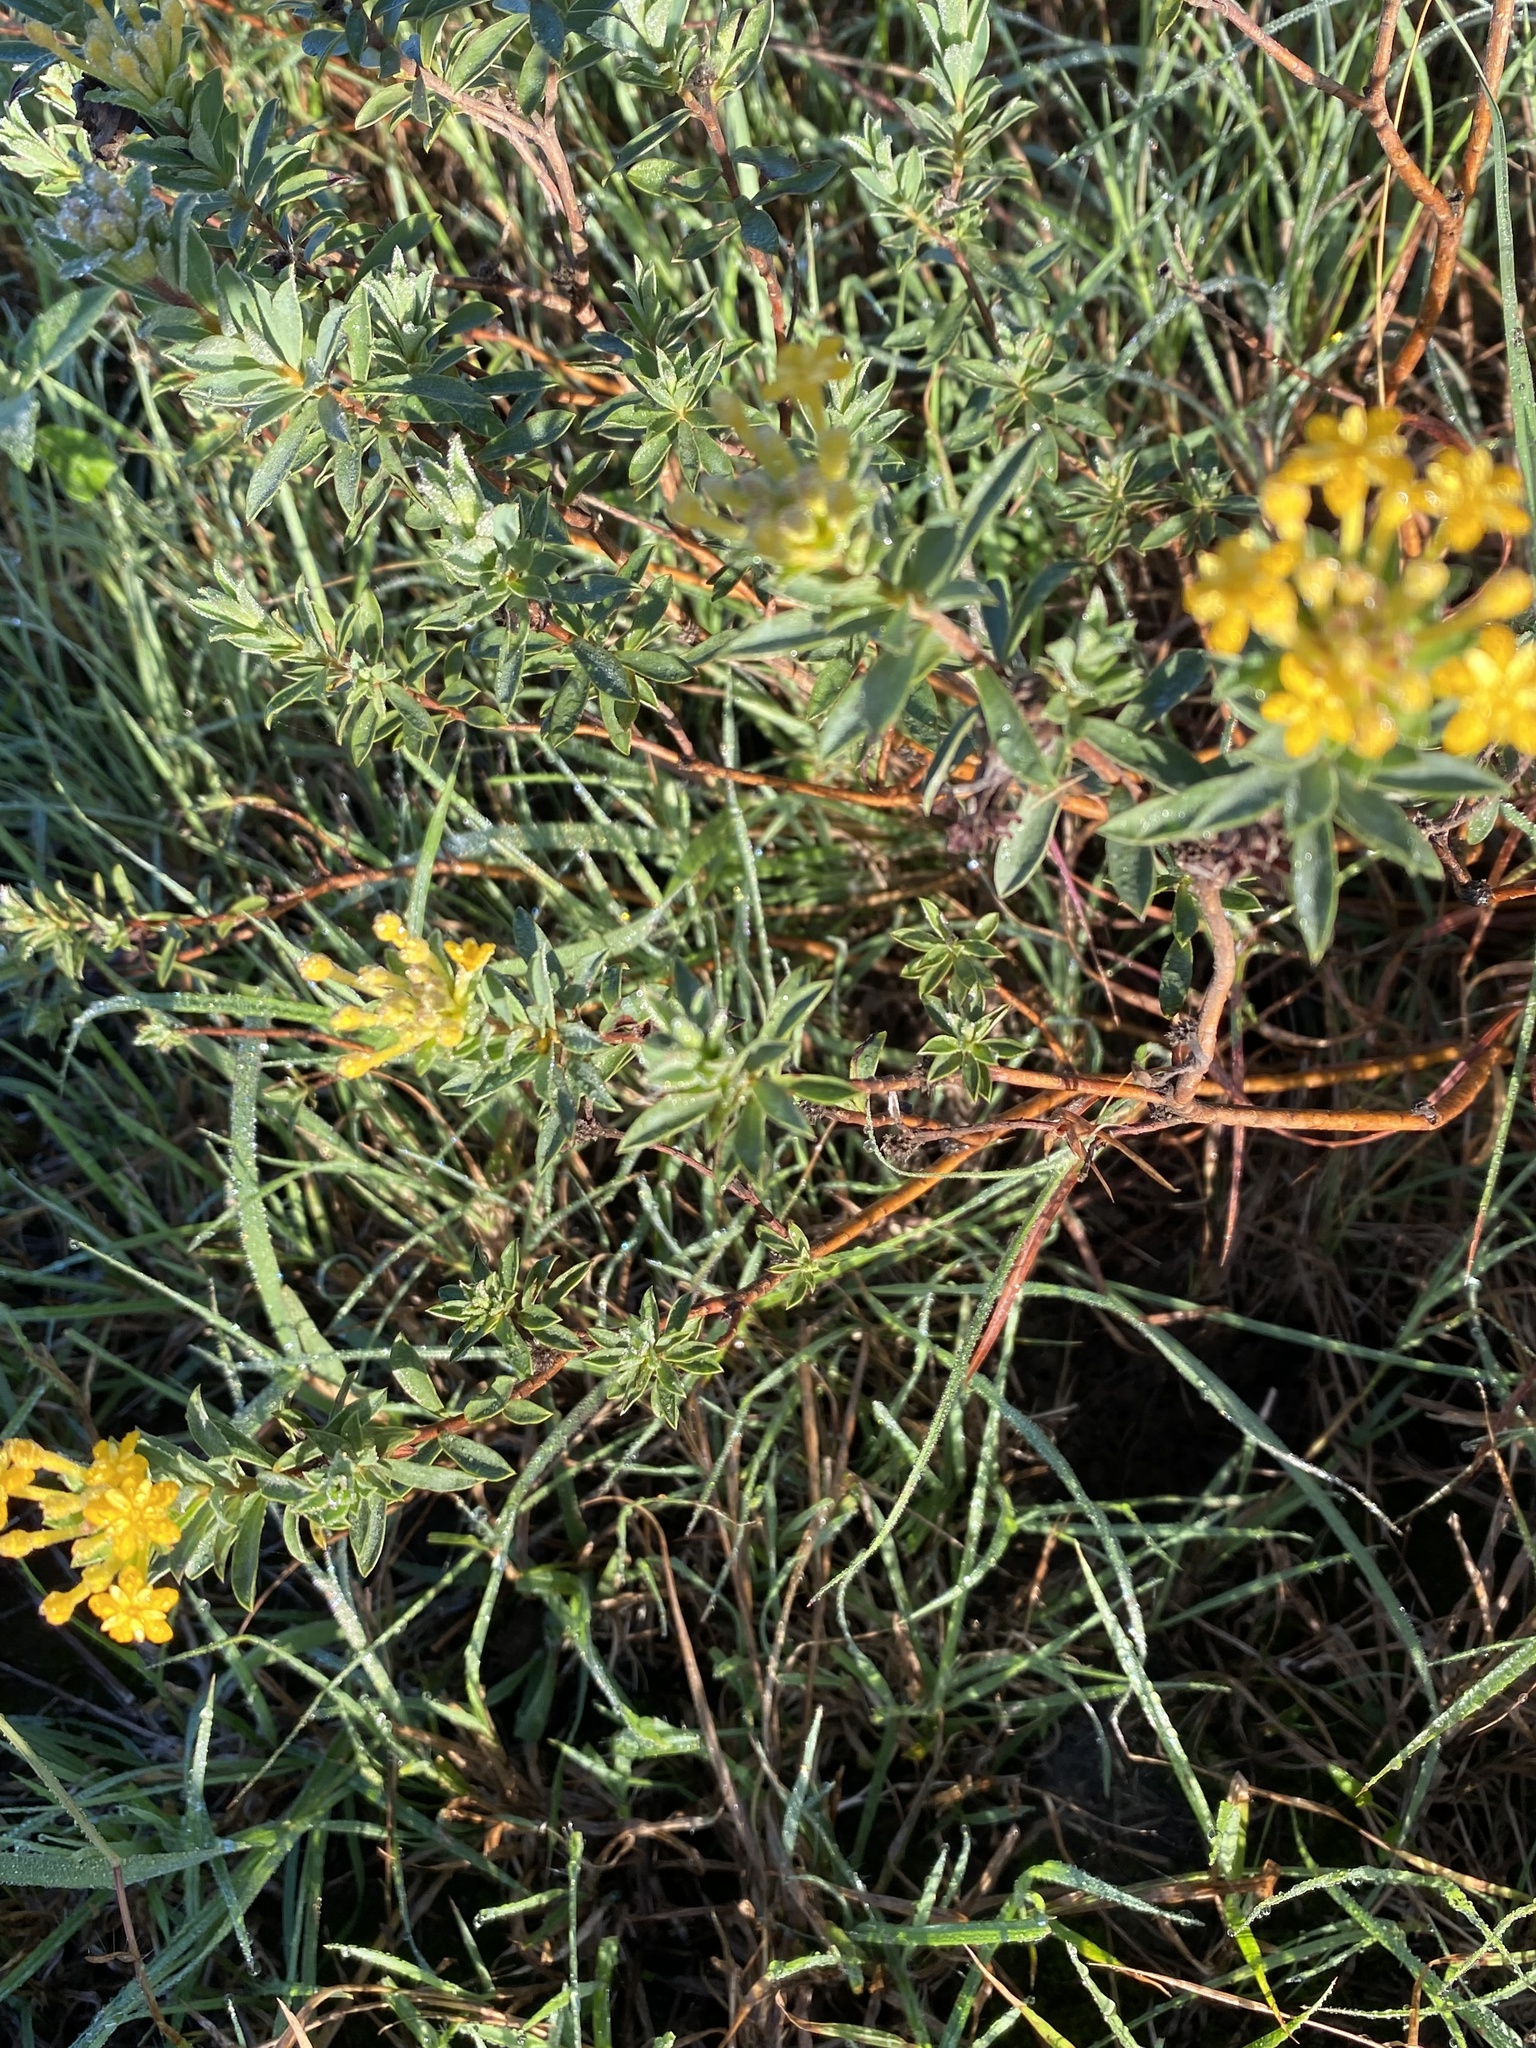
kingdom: Plantae
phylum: Tracheophyta
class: Magnoliopsida
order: Malvales
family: Thymelaeaceae
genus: Gnidia
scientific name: Gnidia capitata
